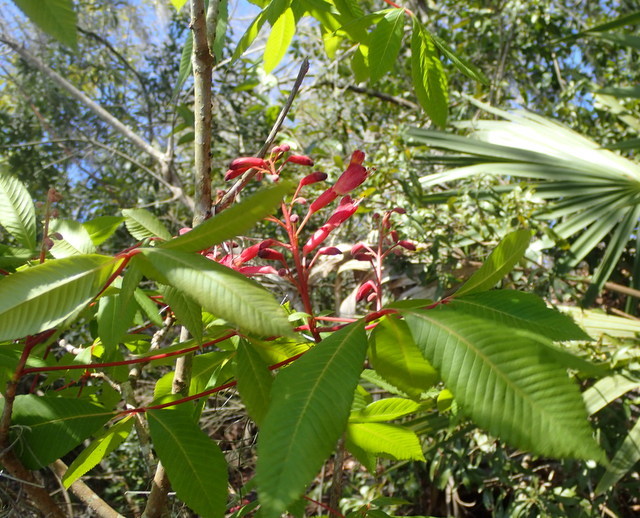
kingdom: Plantae
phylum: Tracheophyta
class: Magnoliopsida
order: Sapindales
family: Sapindaceae
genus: Aesculus
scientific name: Aesculus pavia
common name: Red buckeye
